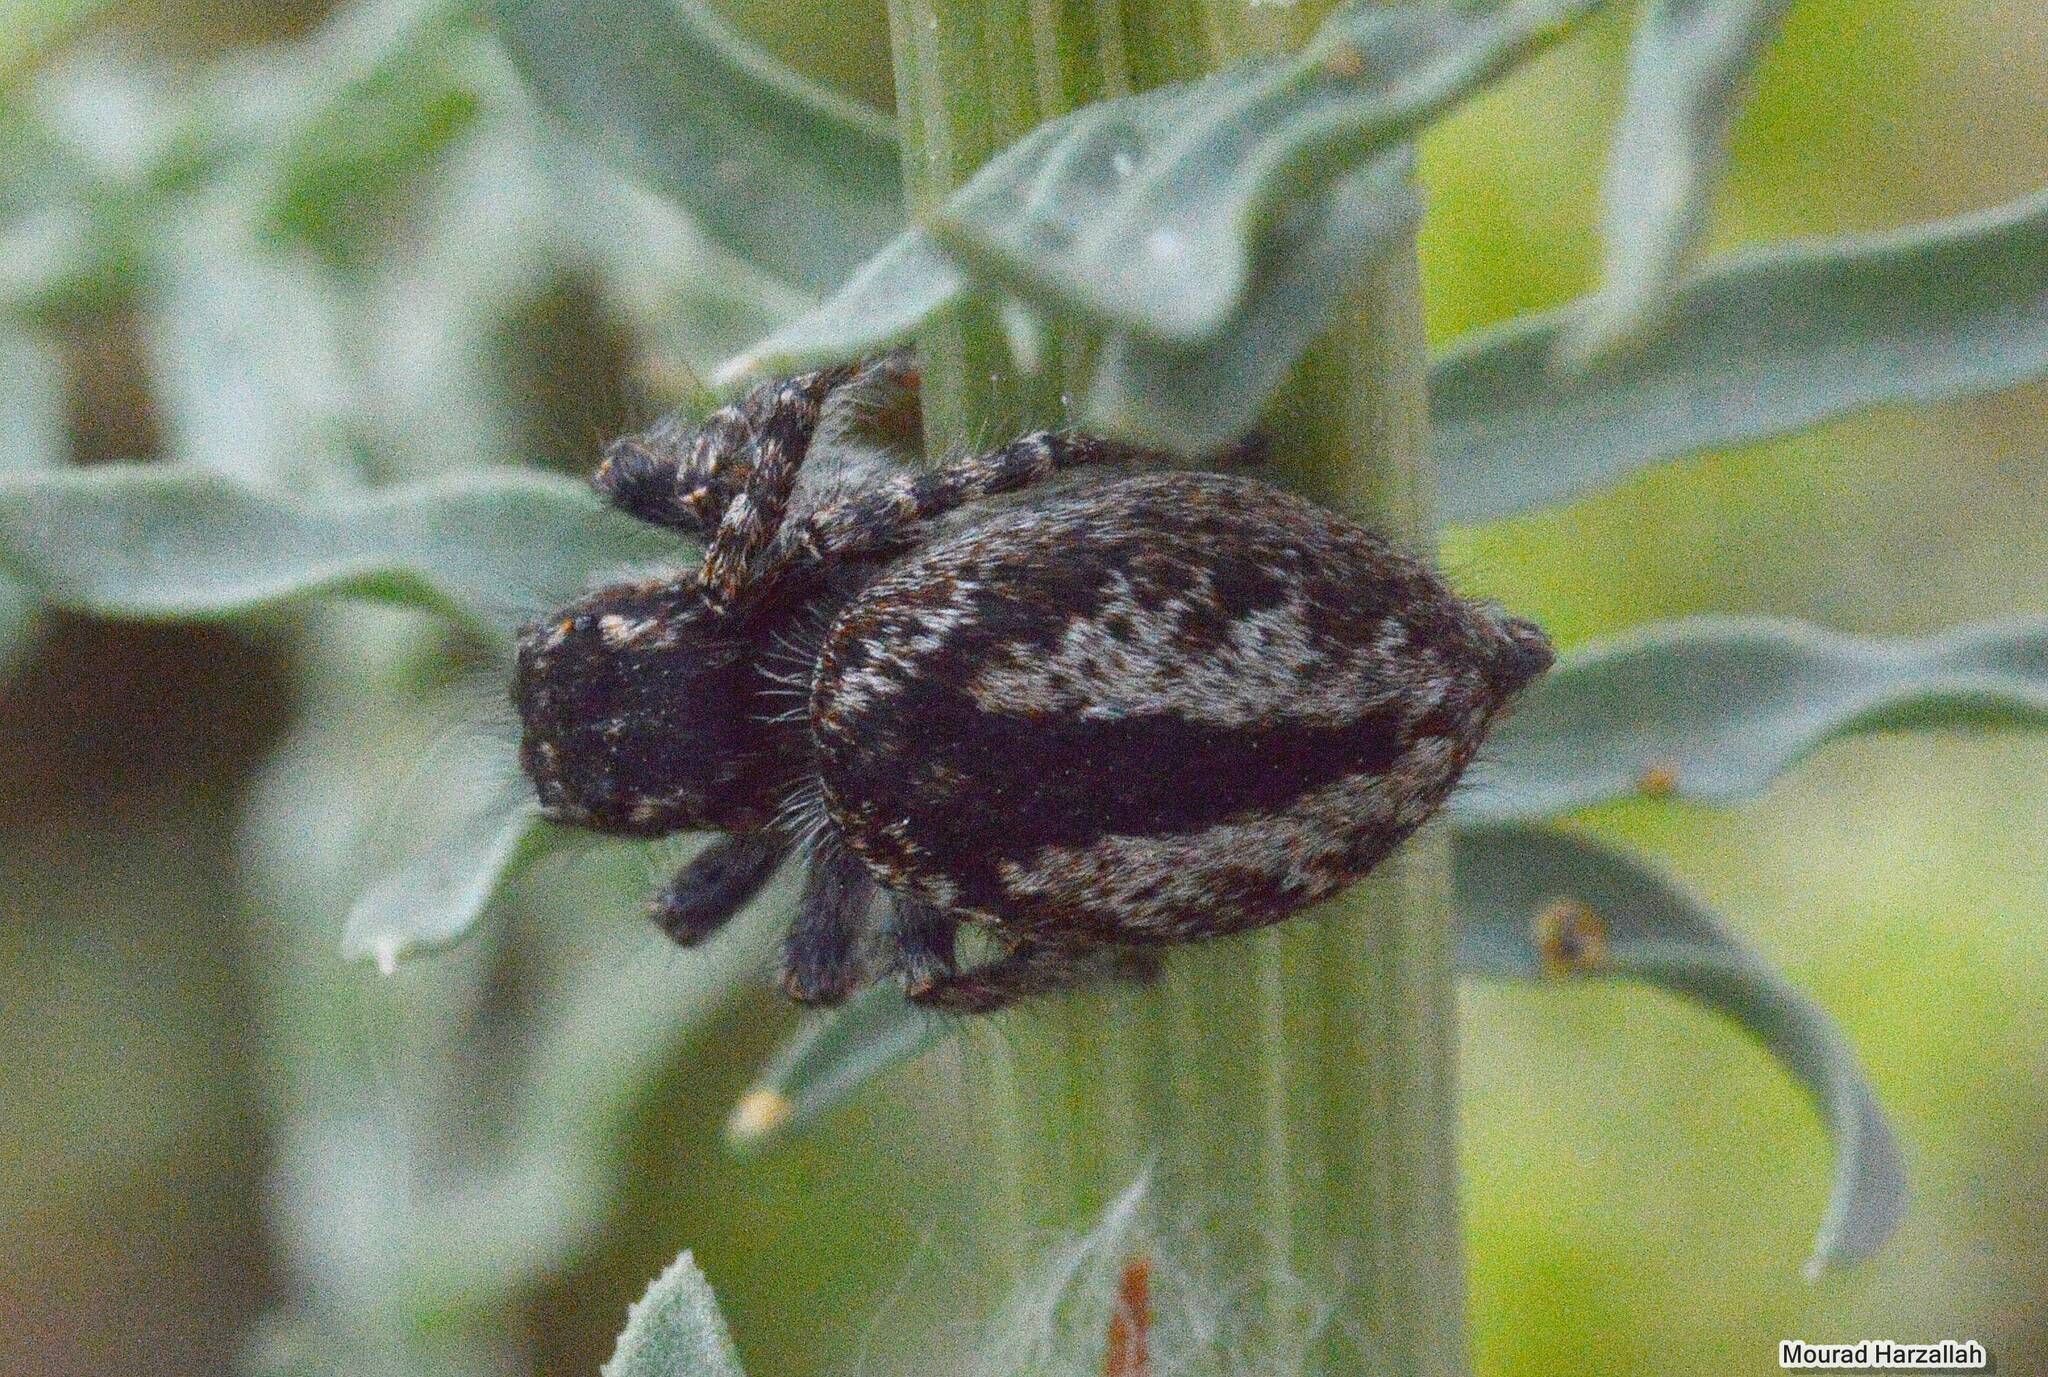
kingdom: Animalia
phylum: Arthropoda
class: Arachnida
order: Araneae
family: Salticidae
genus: Philaeus
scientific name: Philaeus chrysops
